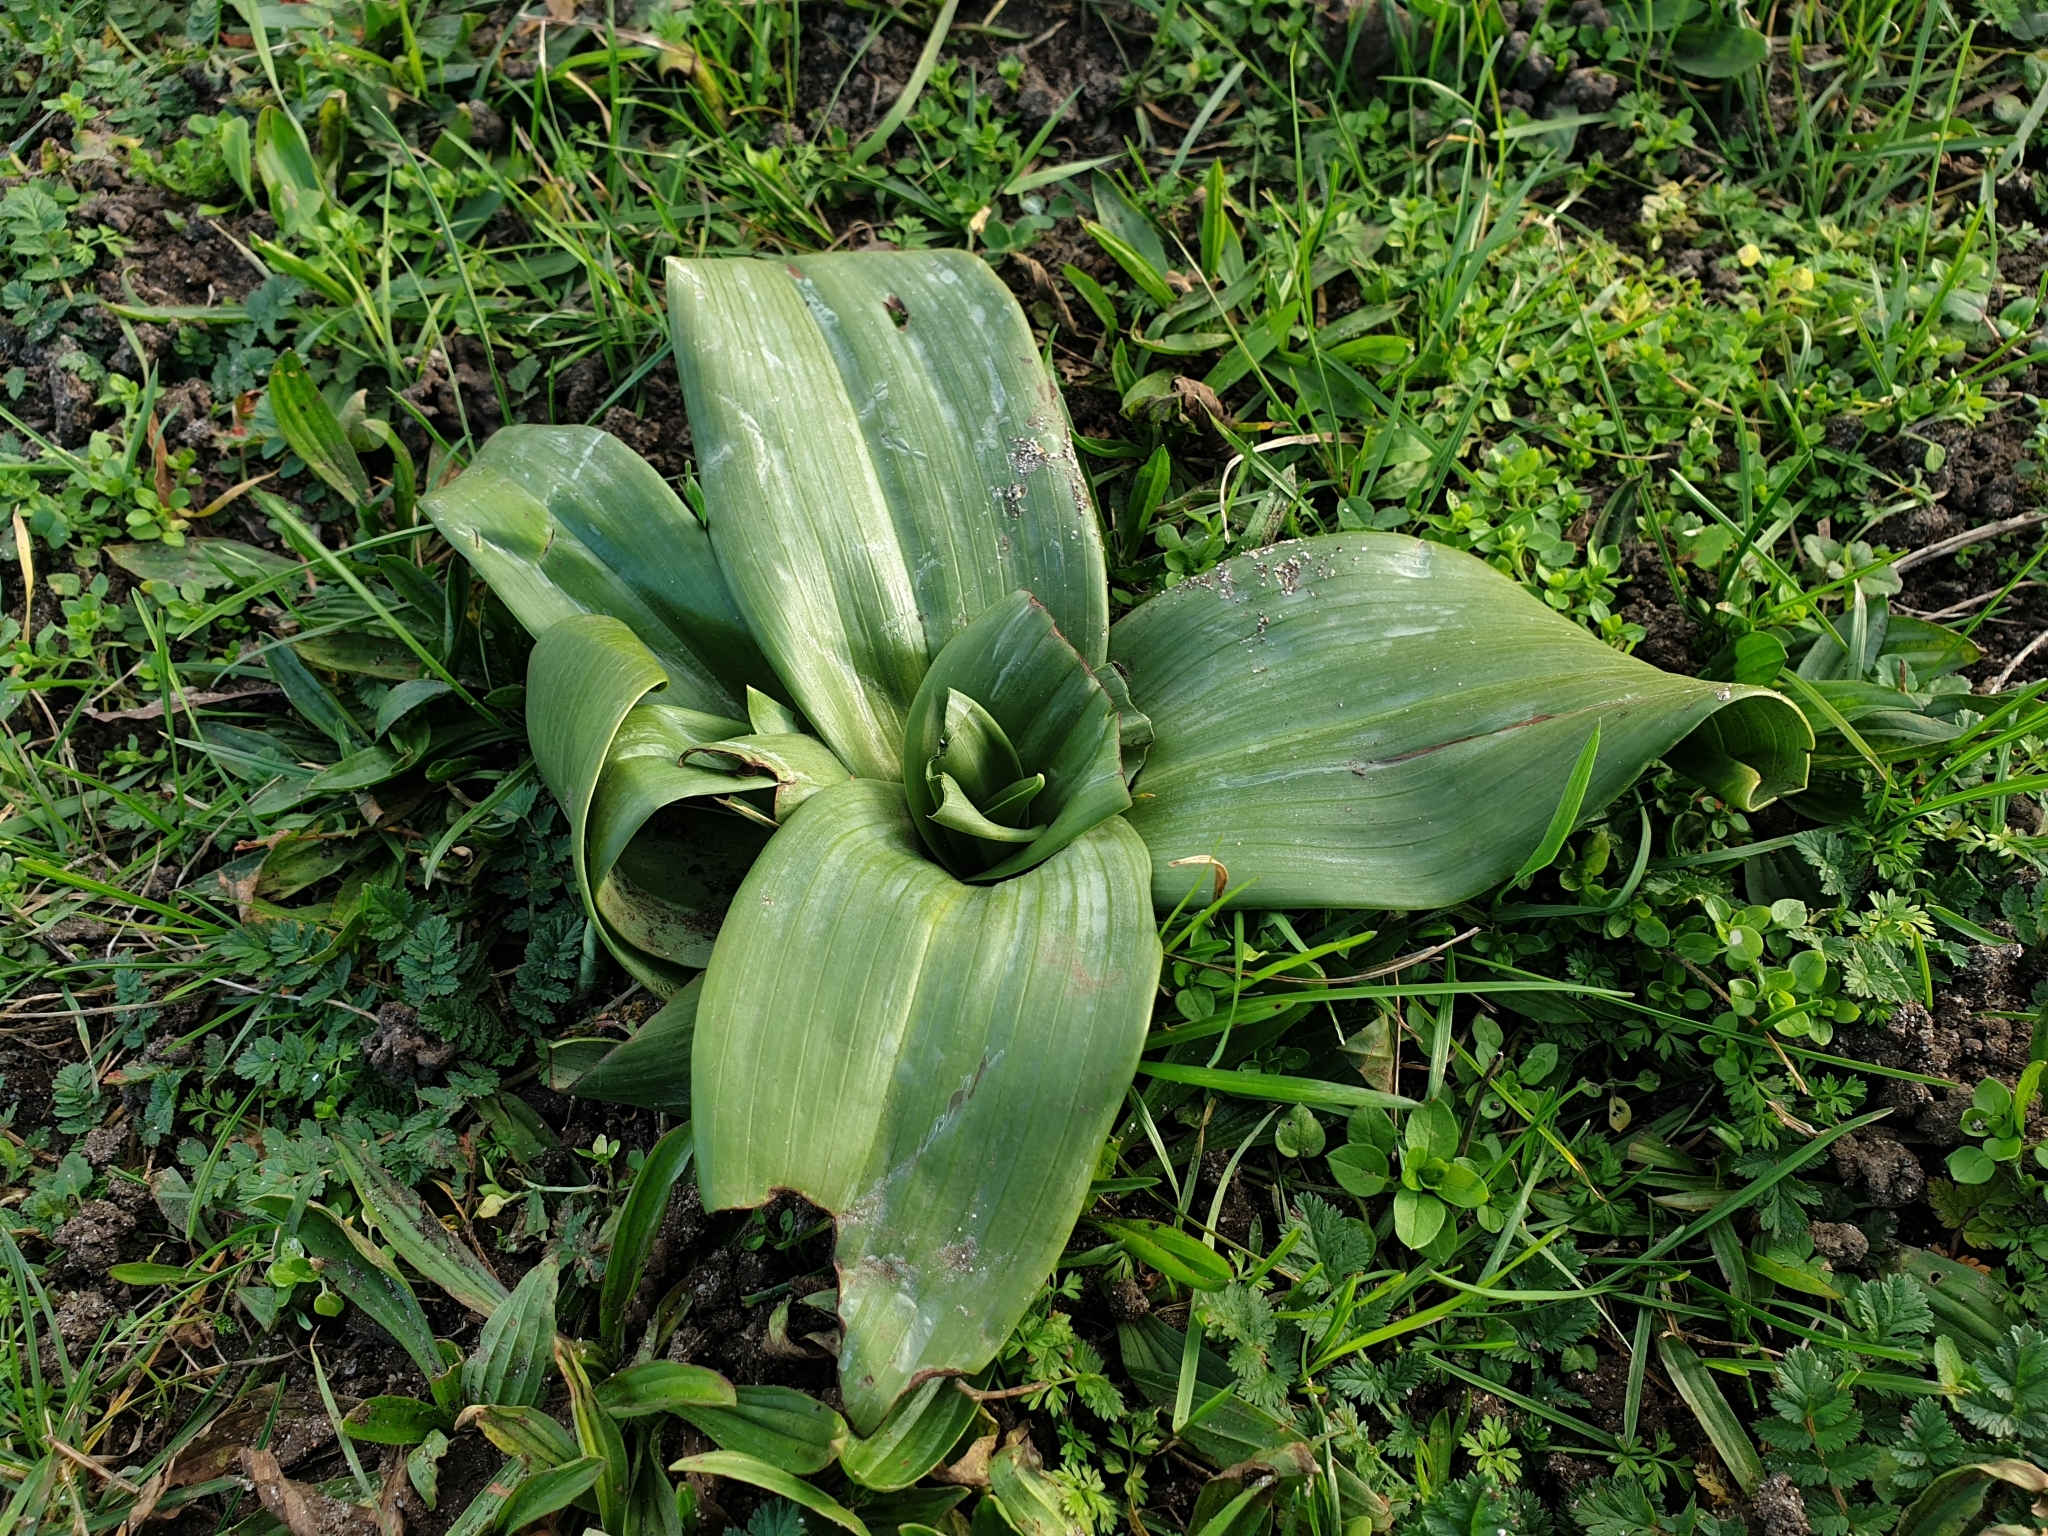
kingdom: Plantae
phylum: Tracheophyta
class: Liliopsida
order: Asparagales
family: Orchidaceae
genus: Himantoglossum
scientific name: Himantoglossum hircinum
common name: Lizard orchid
